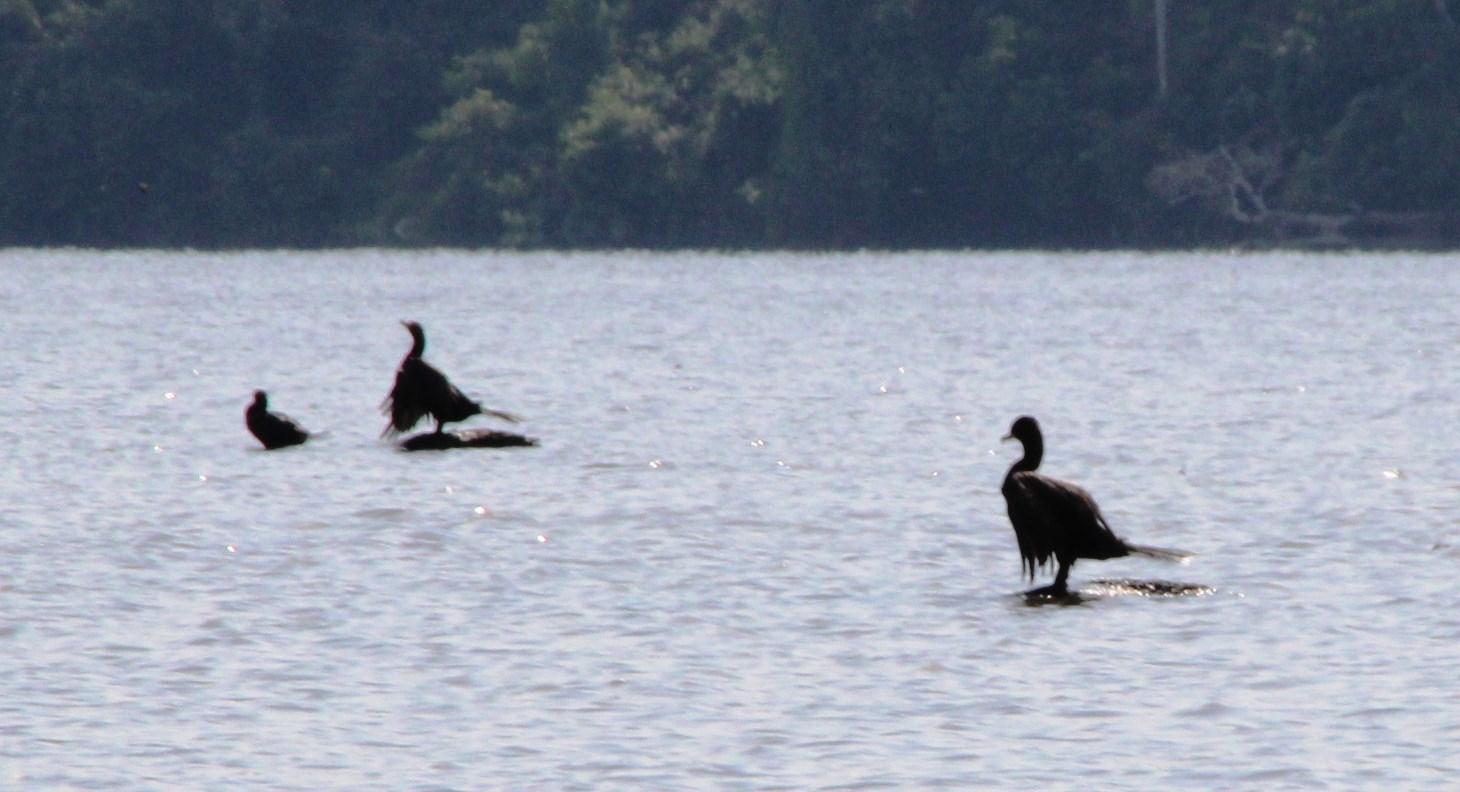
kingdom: Animalia
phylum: Chordata
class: Aves
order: Suliformes
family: Phalacrocoracidae
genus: Phalacrocorax
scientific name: Phalacrocorax brasilianus
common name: Neotropic cormorant
